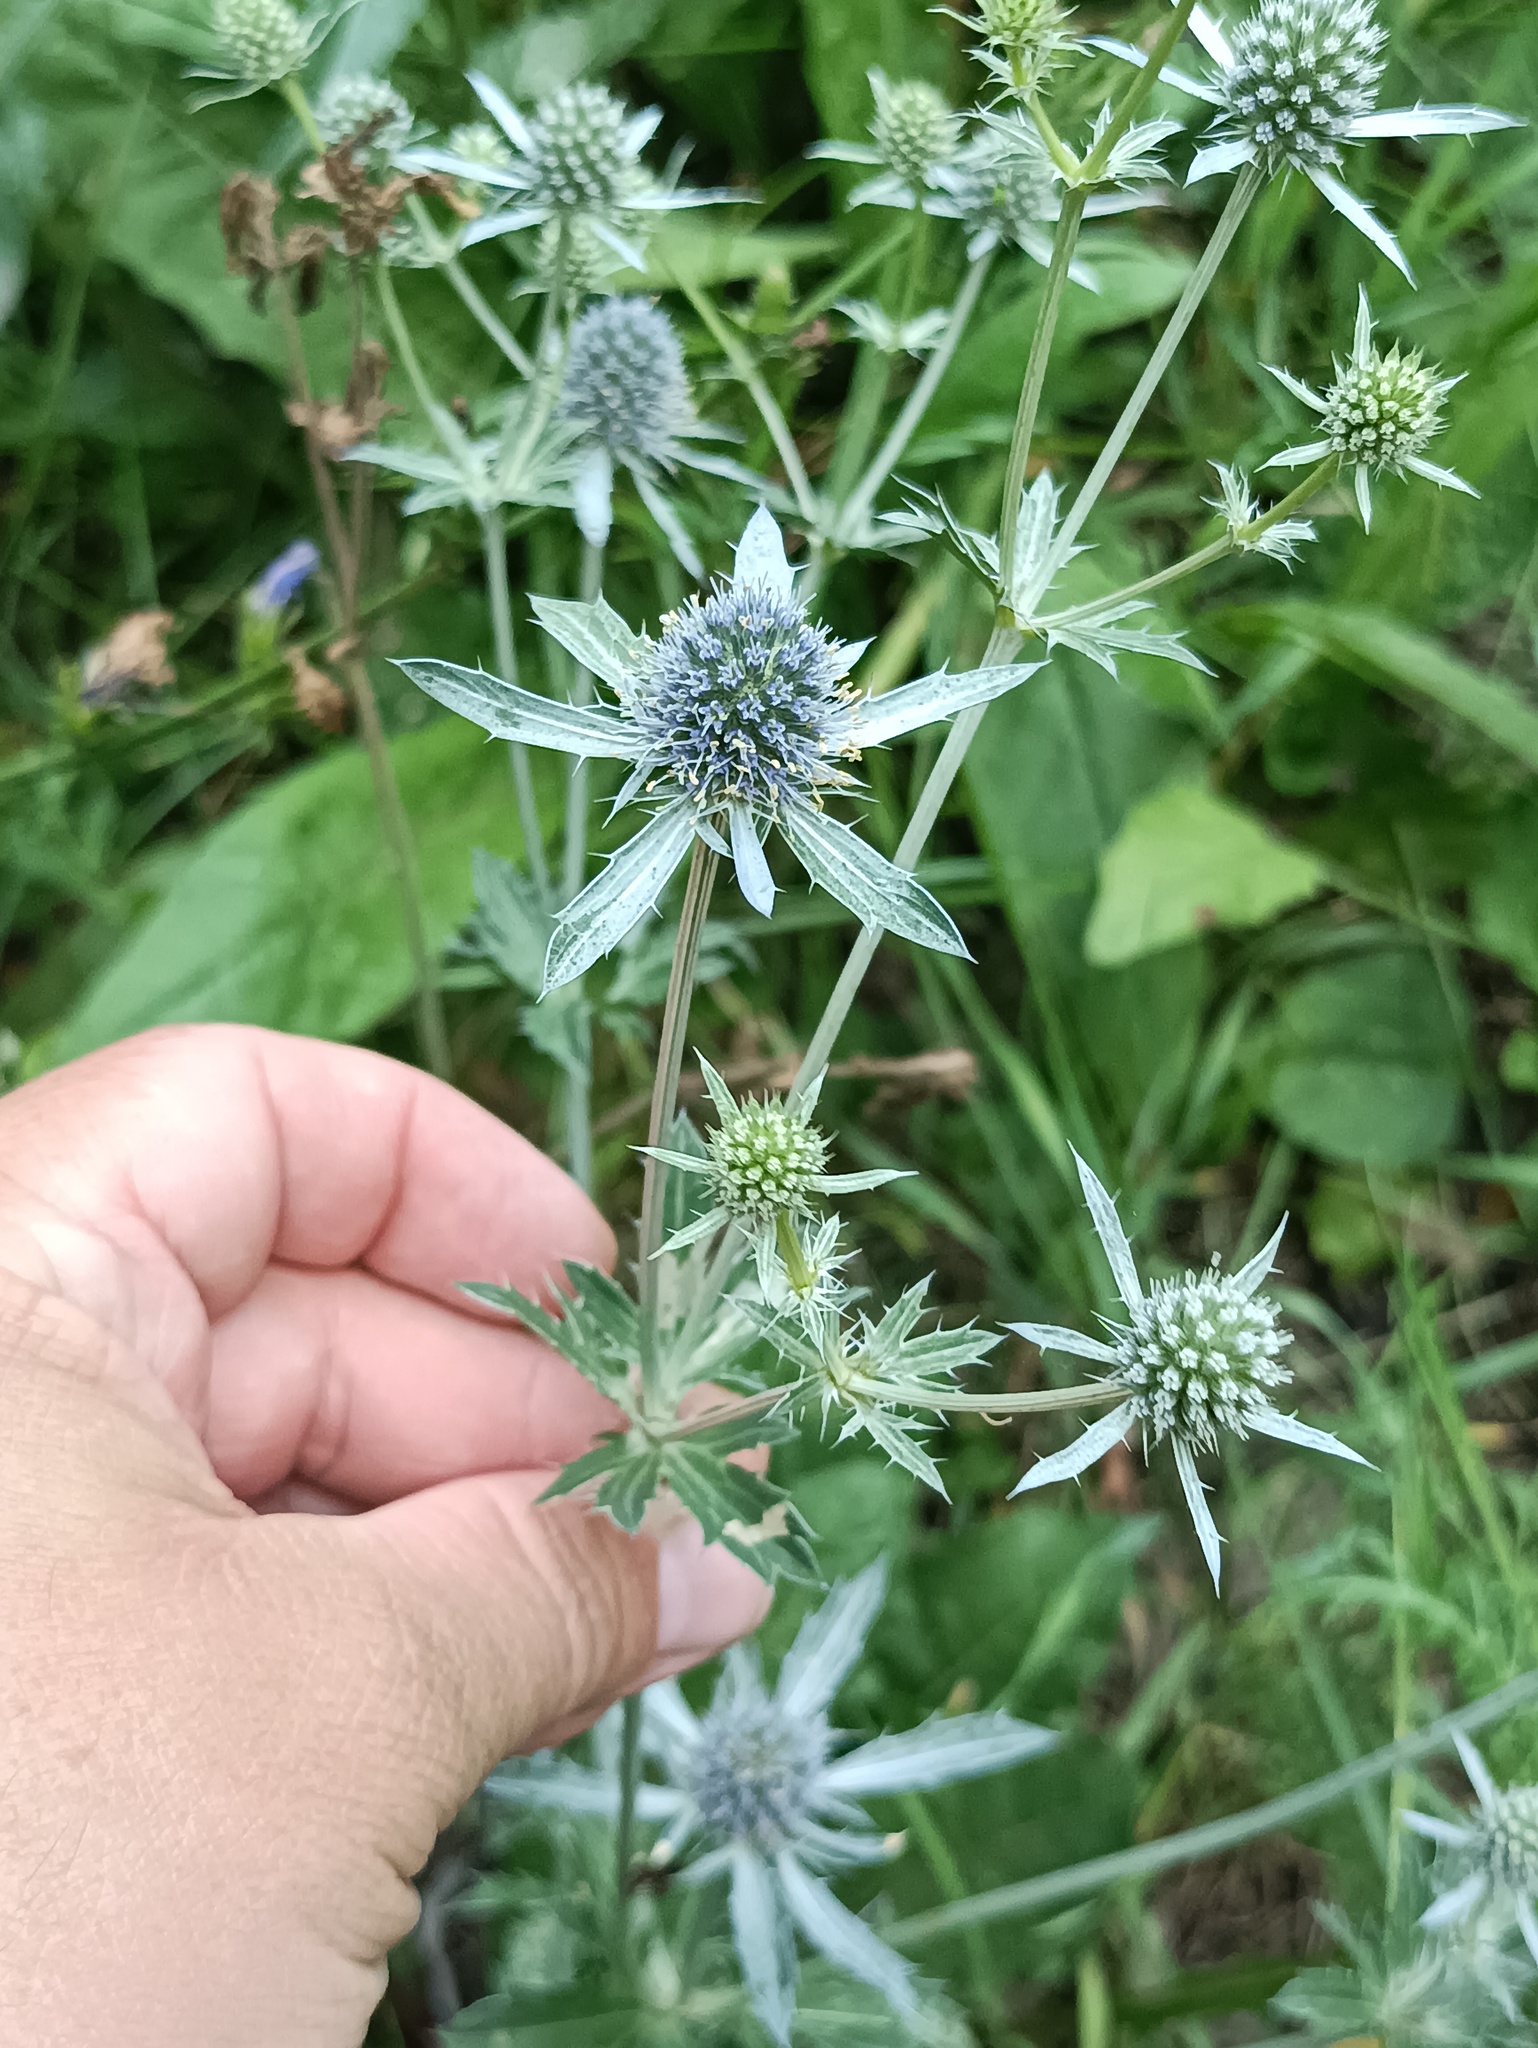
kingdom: Plantae
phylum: Tracheophyta
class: Magnoliopsida
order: Apiales
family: Apiaceae
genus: Eryngium
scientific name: Eryngium planum
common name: Blue eryngo
